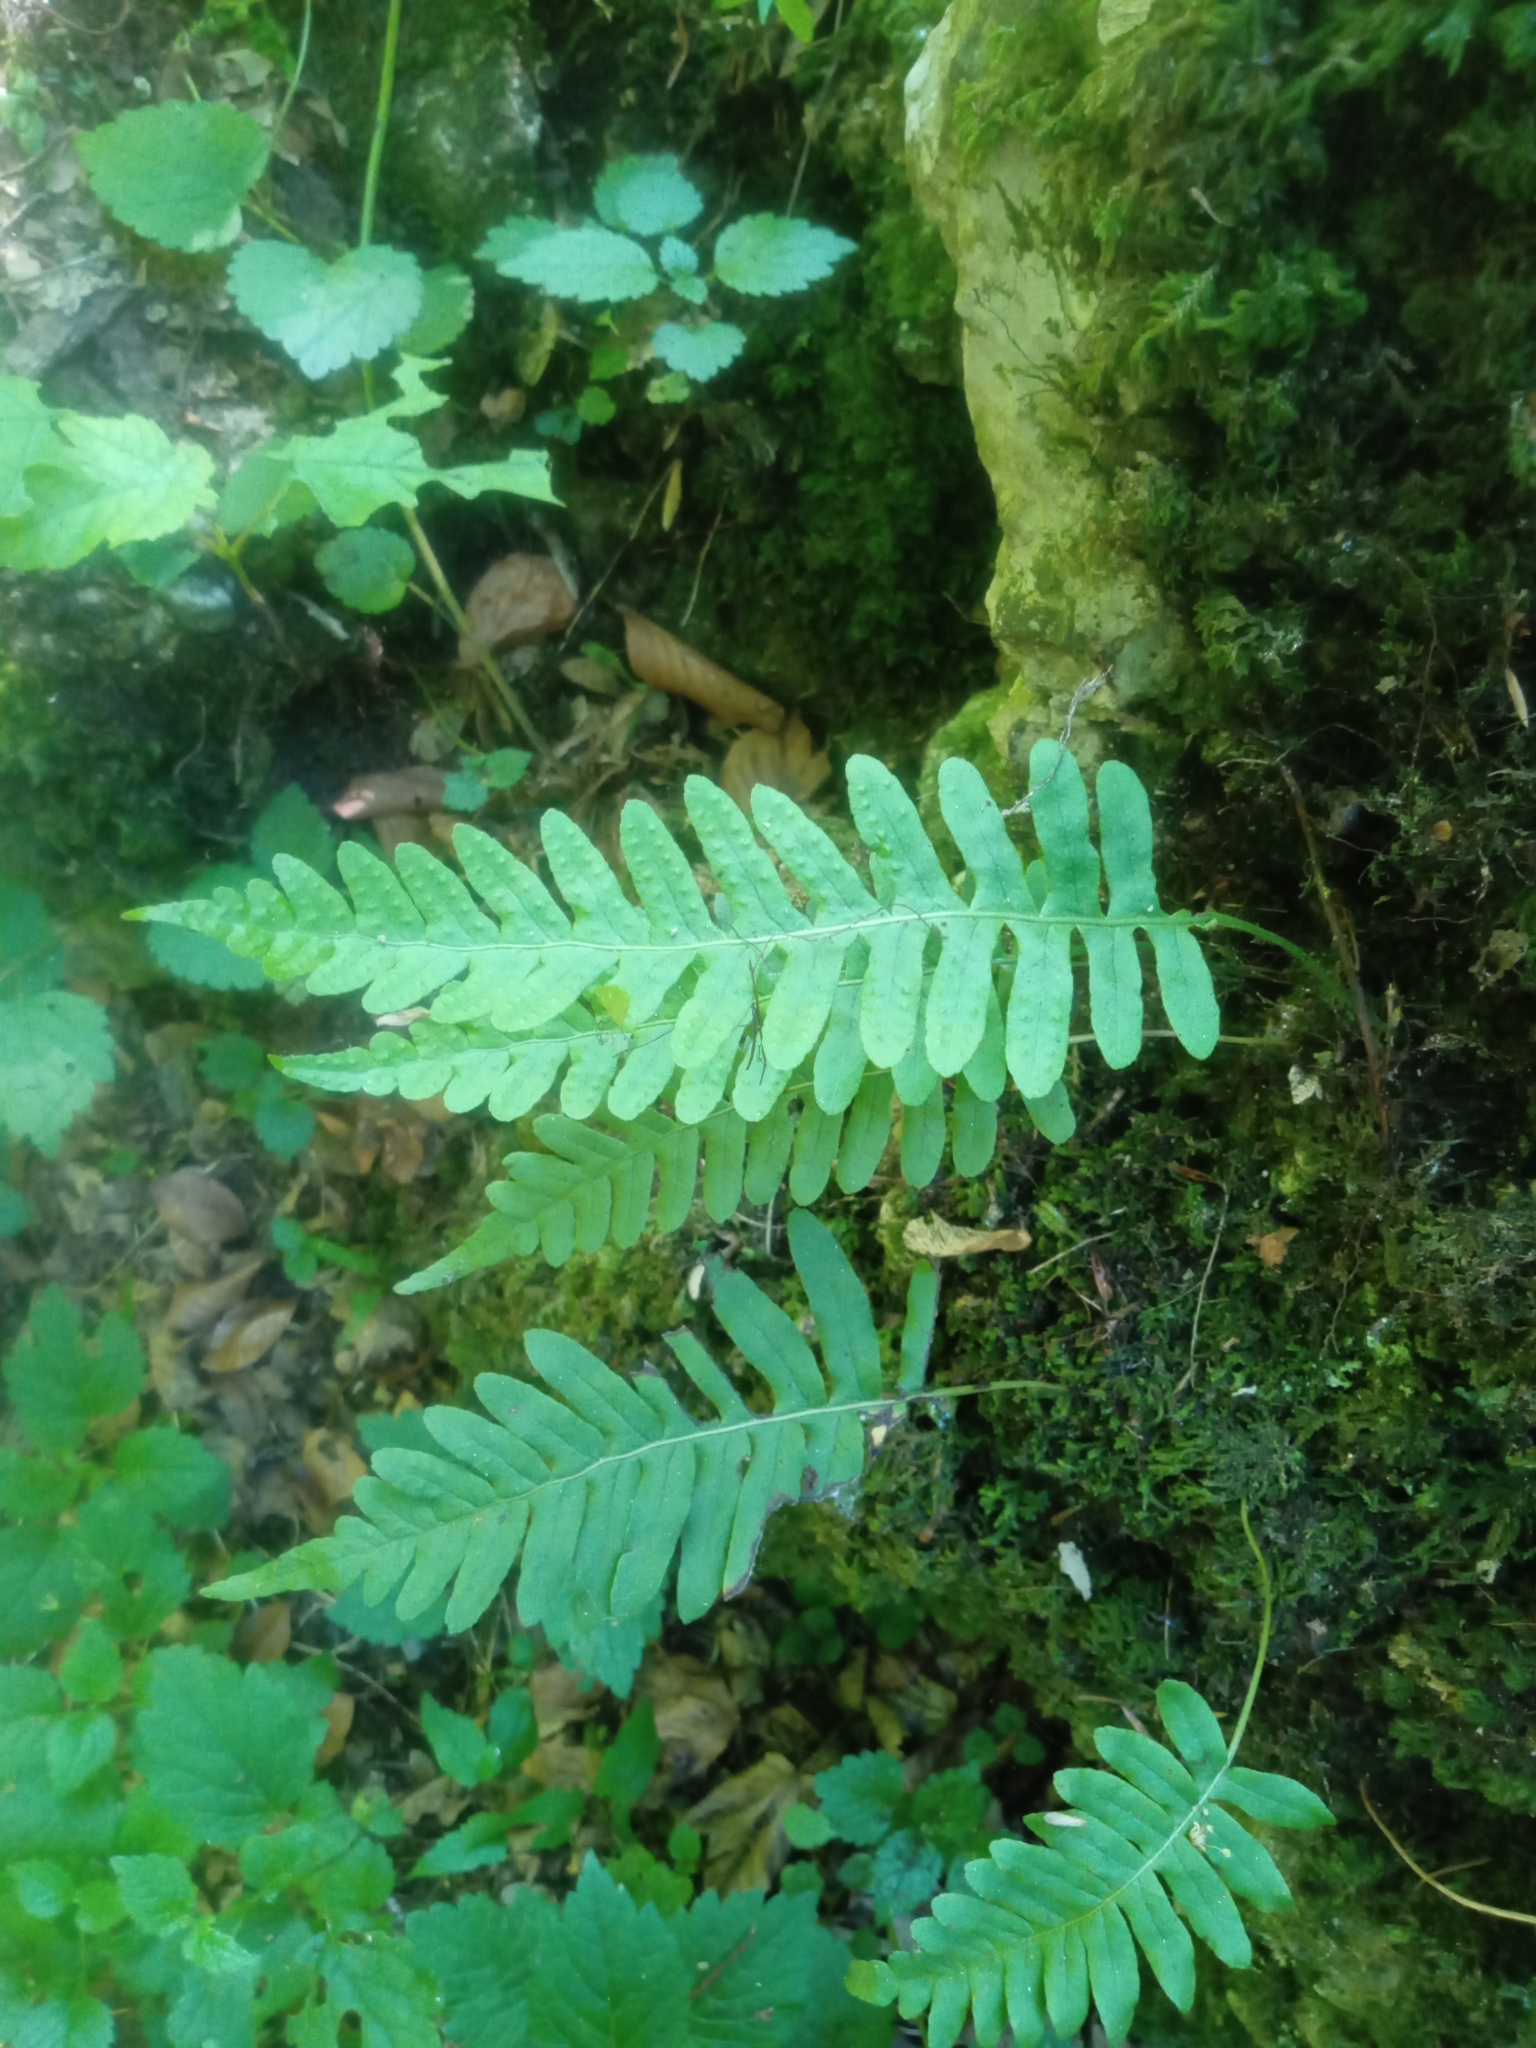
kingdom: Plantae
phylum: Tracheophyta
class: Polypodiopsida
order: Polypodiales
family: Polypodiaceae
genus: Polypodium
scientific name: Polypodium vulgare
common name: Common polypody
